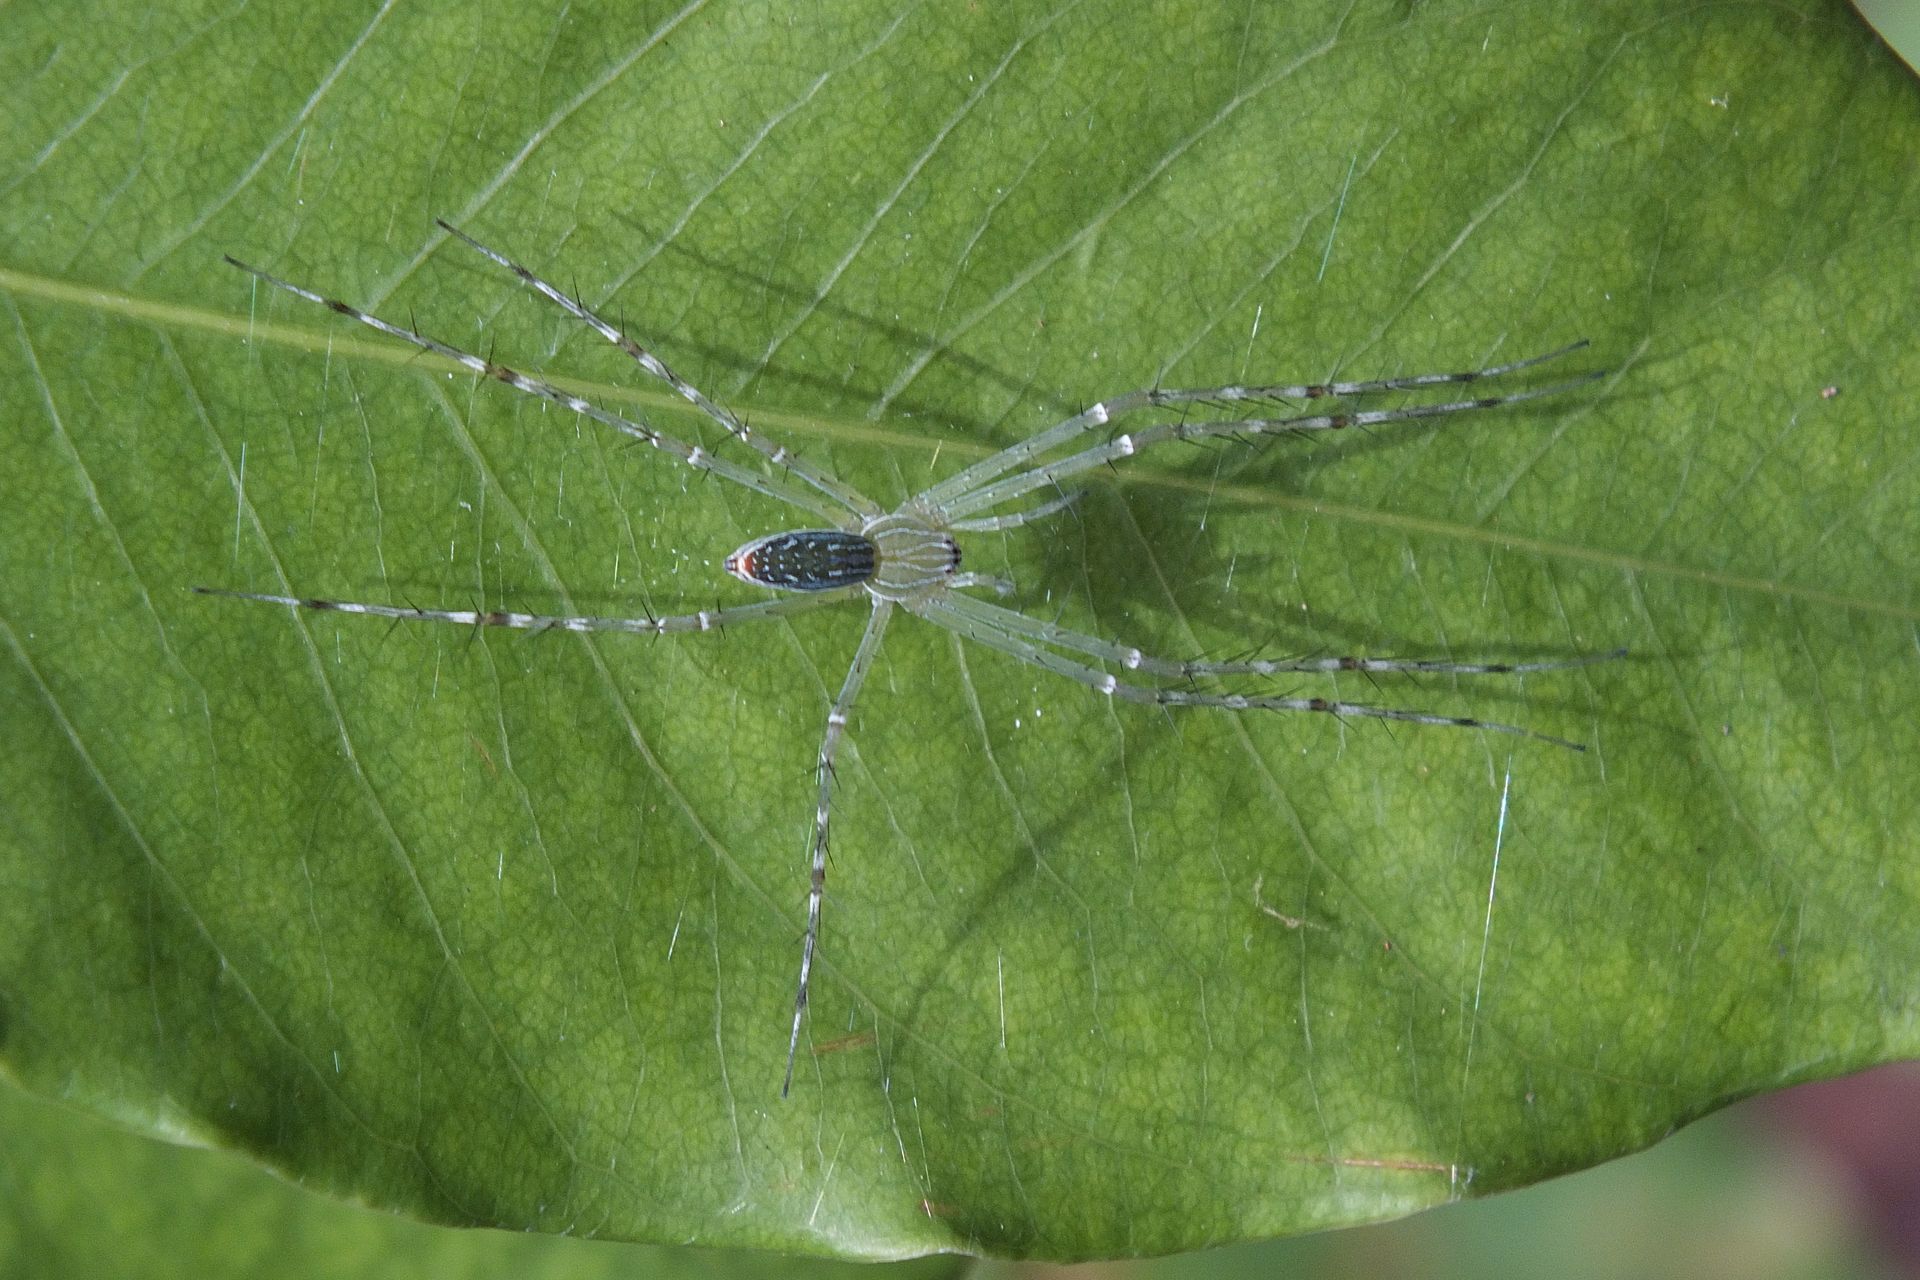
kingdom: Animalia
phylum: Arthropoda
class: Arachnida
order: Araneae
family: Pisauridae
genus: Hygropoda
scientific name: Hygropoda lineata
